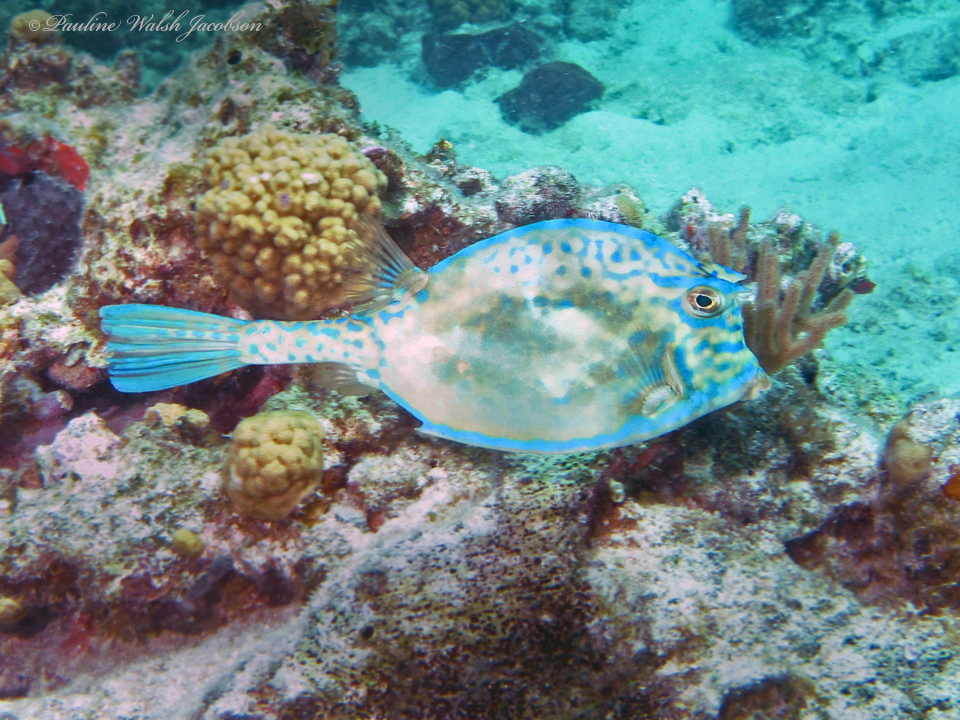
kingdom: Animalia
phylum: Chordata
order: Tetraodontiformes
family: Ostraciidae
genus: Acanthostracion
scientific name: Acanthostracion quadricornis
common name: Scrawled cowfish
